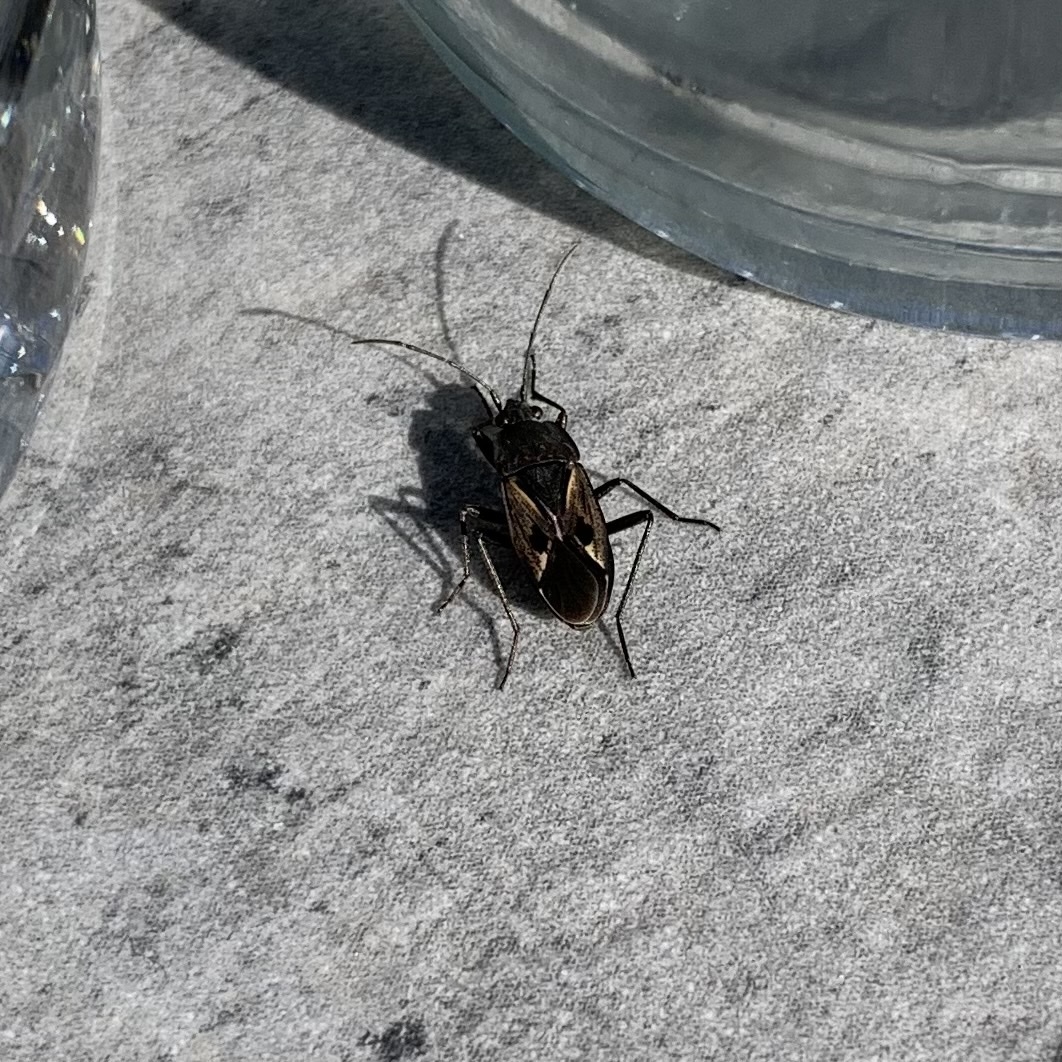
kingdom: Animalia
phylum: Arthropoda
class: Insecta
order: Hemiptera
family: Rhyparochromidae
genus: Rhyparochromus
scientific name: Rhyparochromus pini
